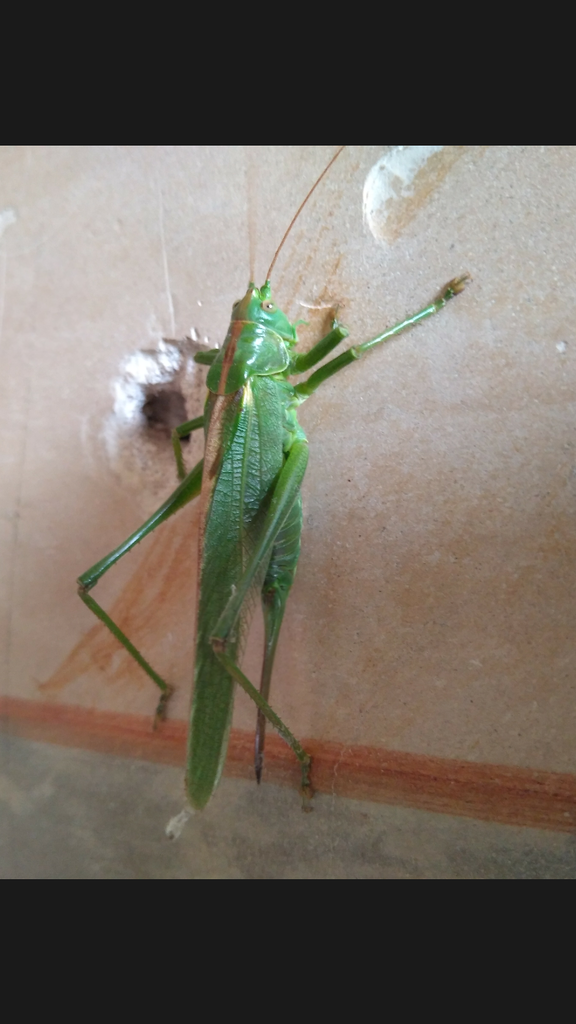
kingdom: Animalia
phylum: Arthropoda
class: Insecta
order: Orthoptera
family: Tettigoniidae
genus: Tettigonia
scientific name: Tettigonia viridissima
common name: Great green bush-cricket
